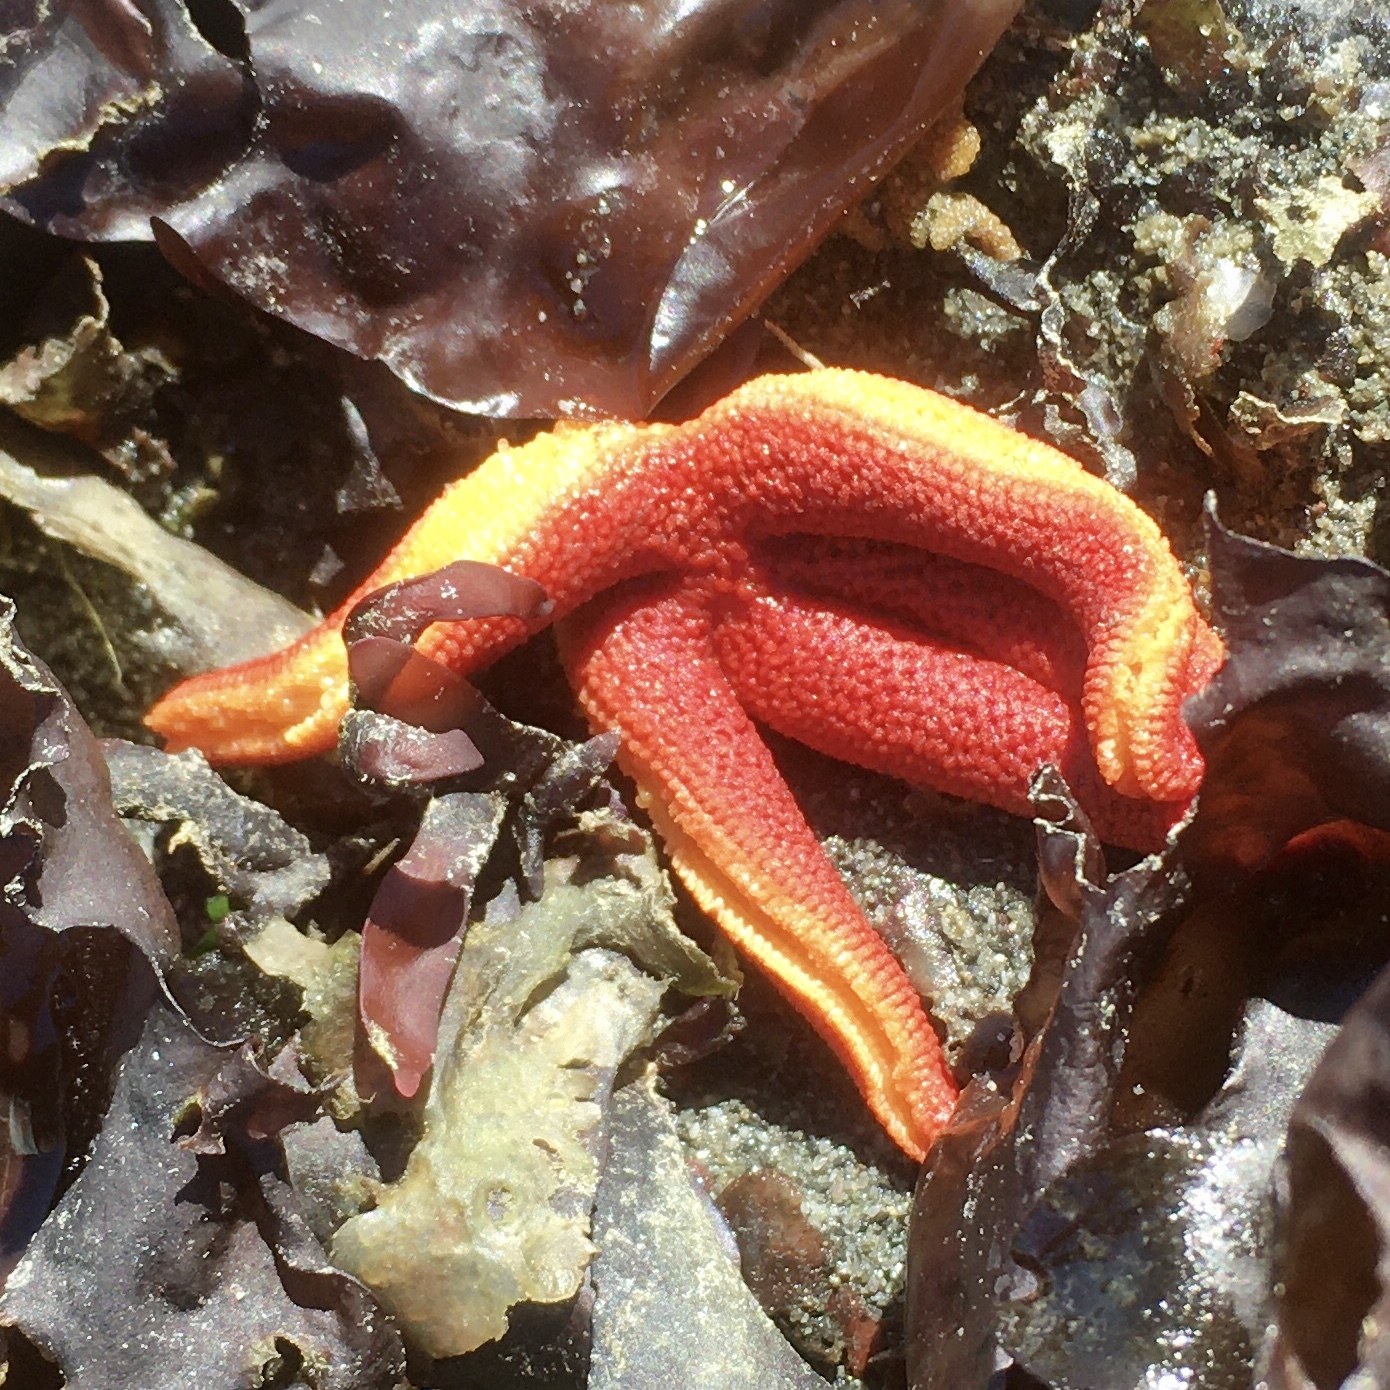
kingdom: Animalia
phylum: Echinodermata
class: Asteroidea
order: Spinulosida
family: Echinasteridae
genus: Henricia
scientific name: Henricia leviuscula
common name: Pacific blood star
